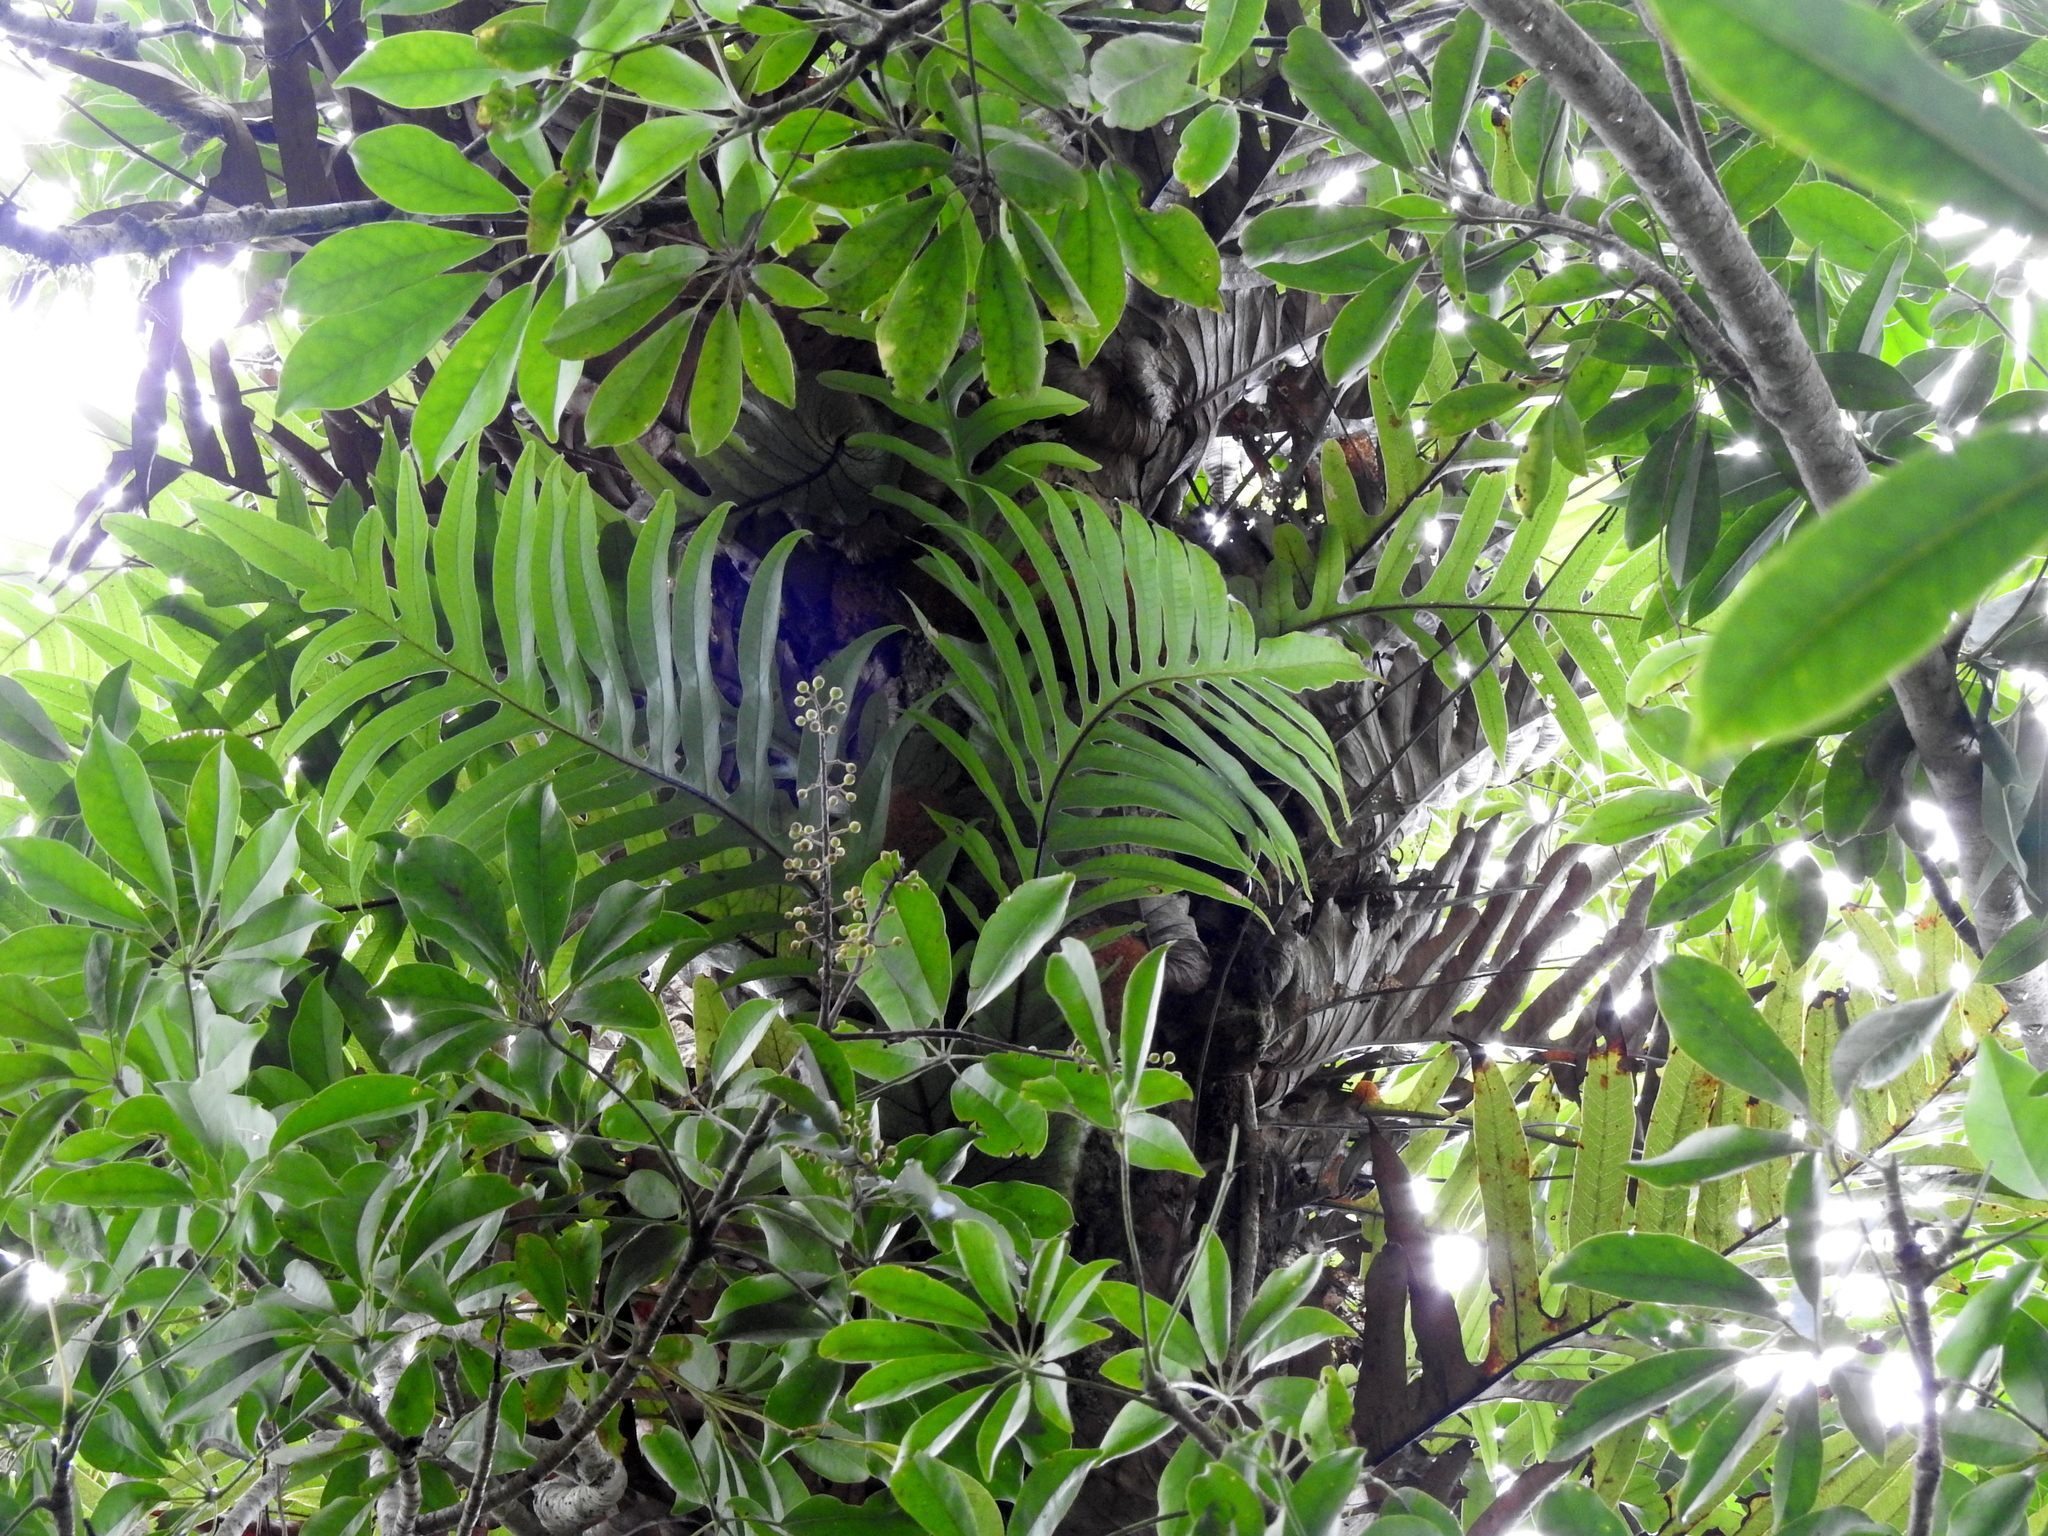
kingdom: Plantae
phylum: Tracheophyta
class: Magnoliopsida
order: Apiales
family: Araliaceae
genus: Heptapleurum
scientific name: Heptapleurum arboricola
